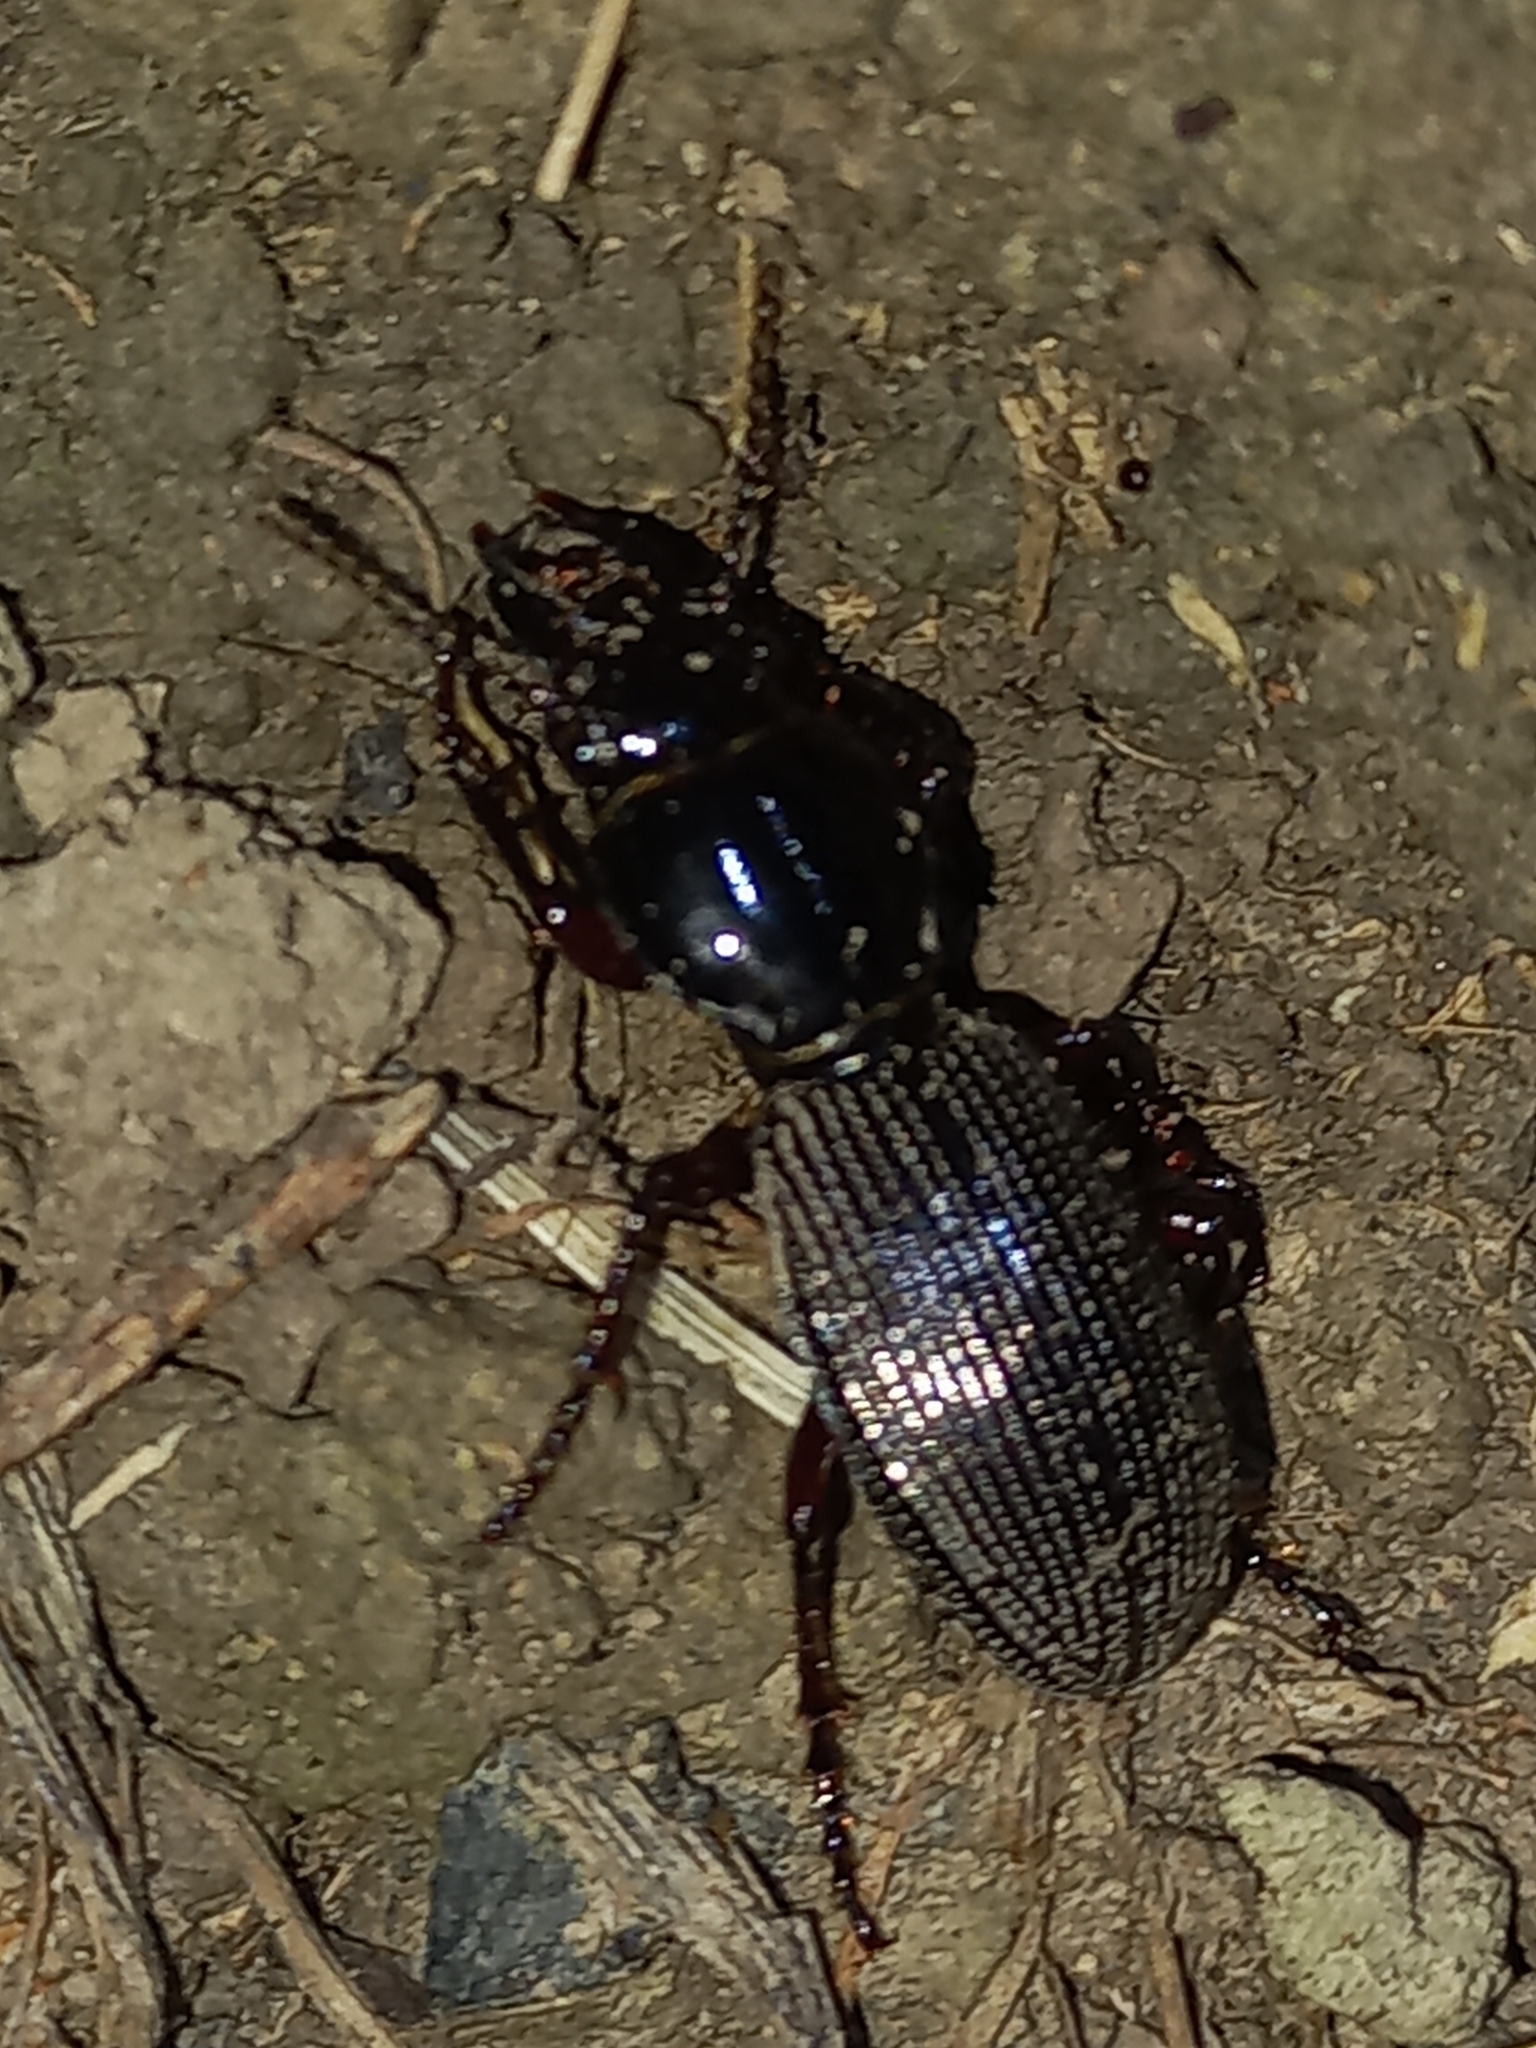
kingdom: Animalia
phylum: Arthropoda
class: Insecta
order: Coleoptera
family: Carabidae
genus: Mecodema
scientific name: Mecodema oblongum
